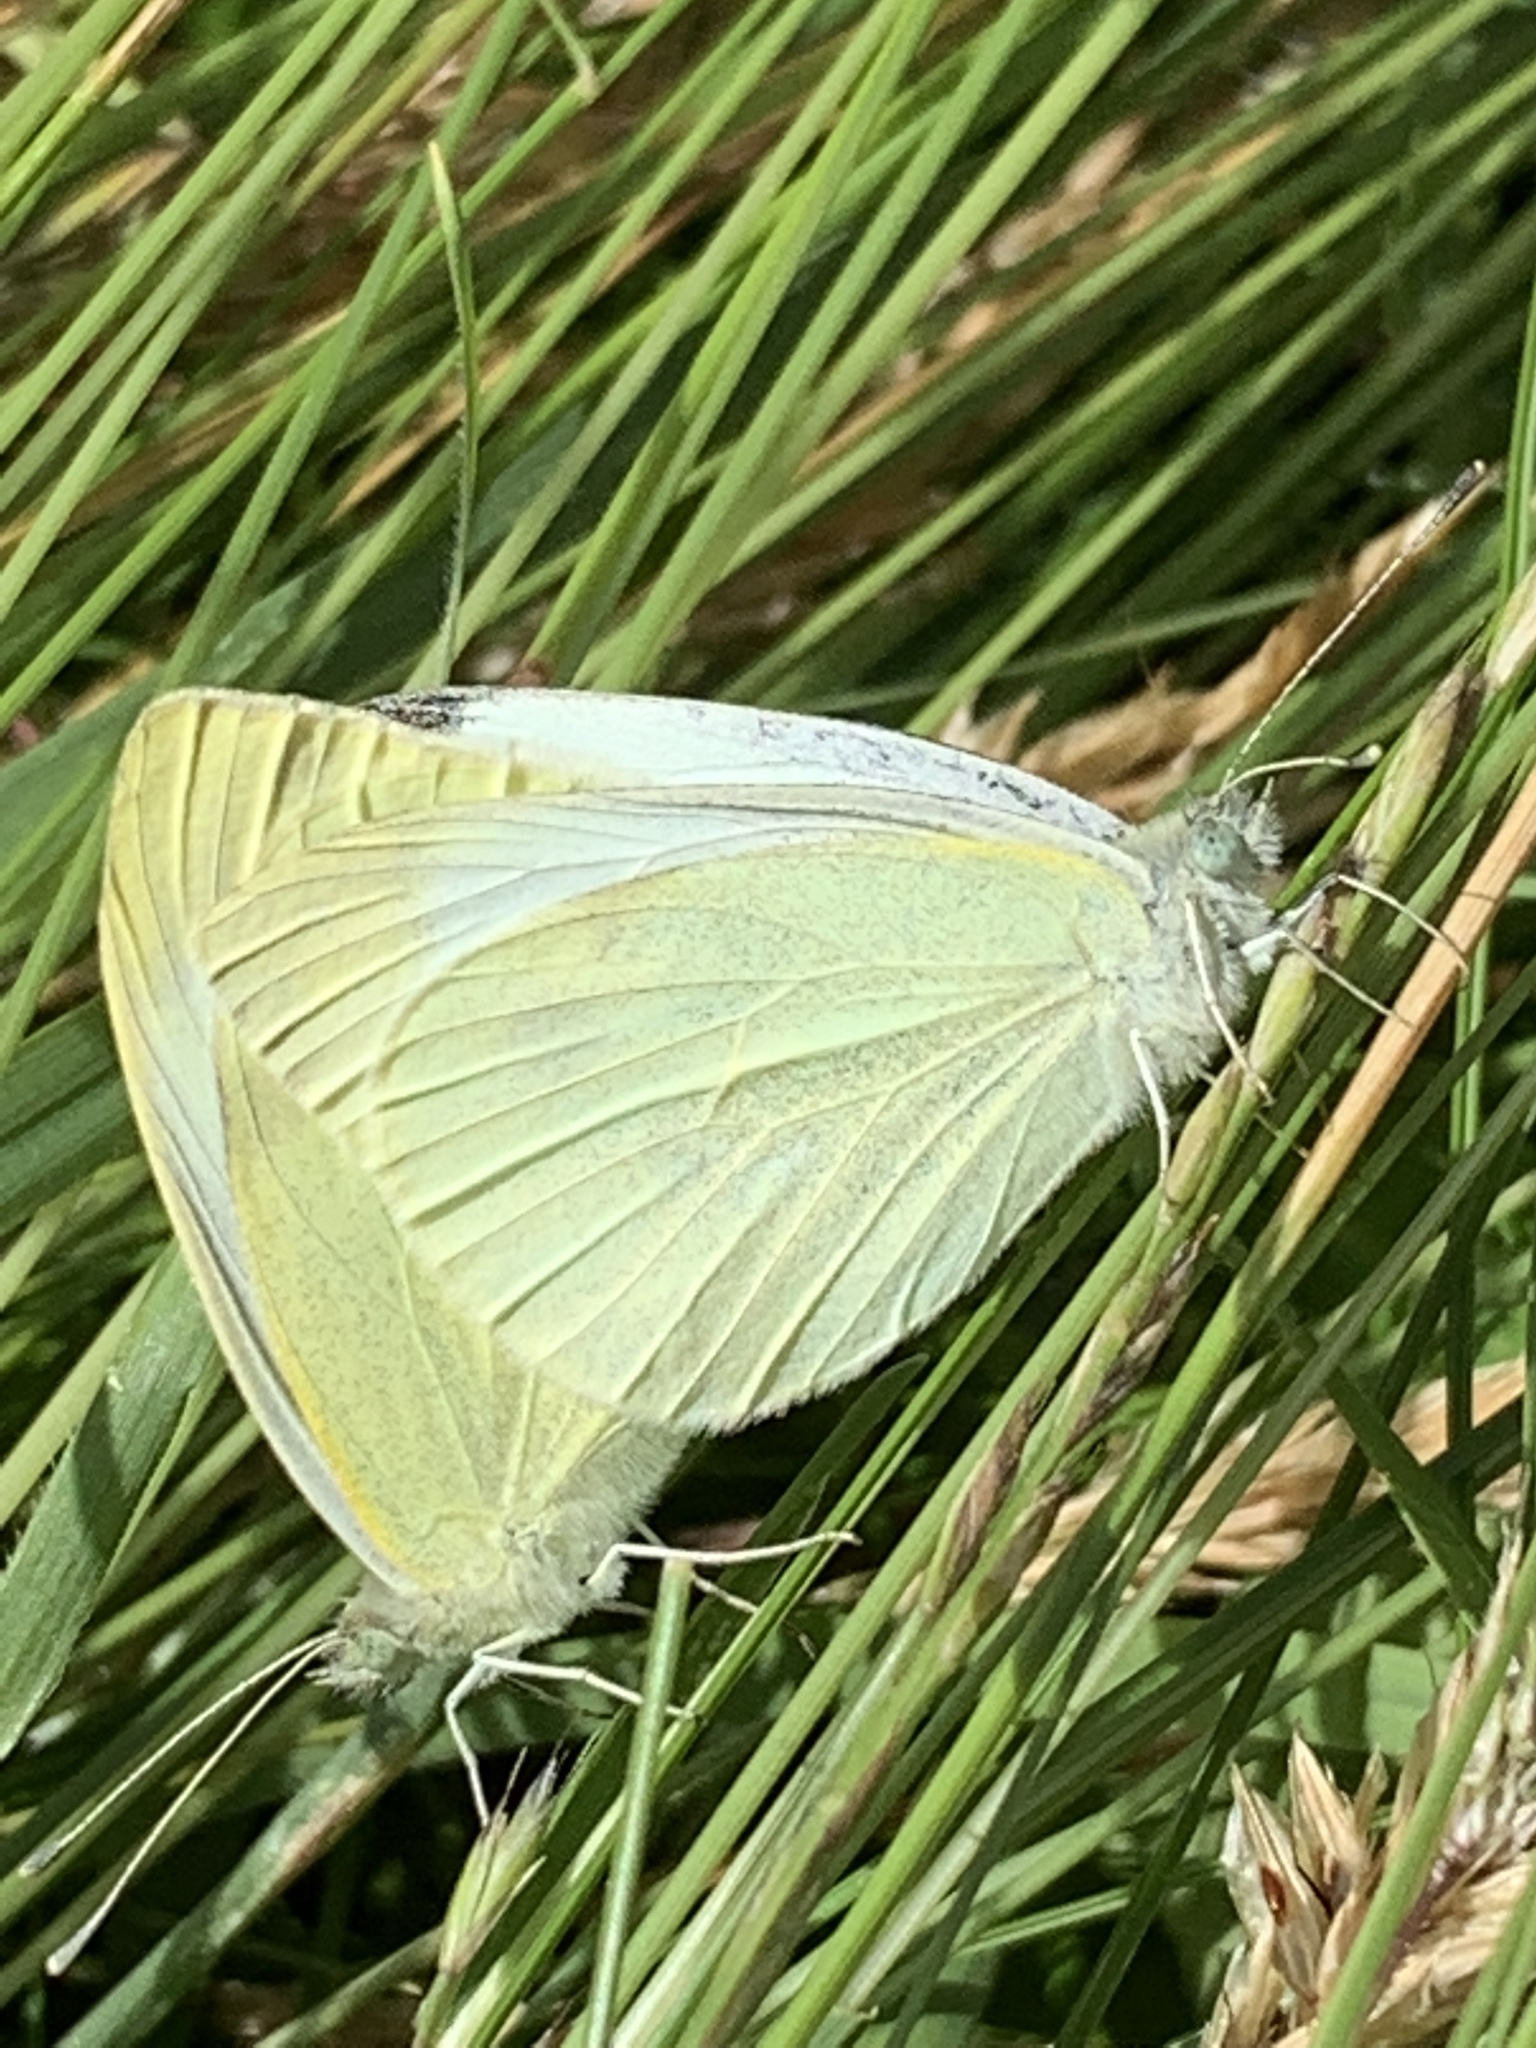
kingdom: Animalia
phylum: Arthropoda
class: Insecta
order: Lepidoptera
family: Pieridae
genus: Pieris
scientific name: Pieris rapae
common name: Small white
